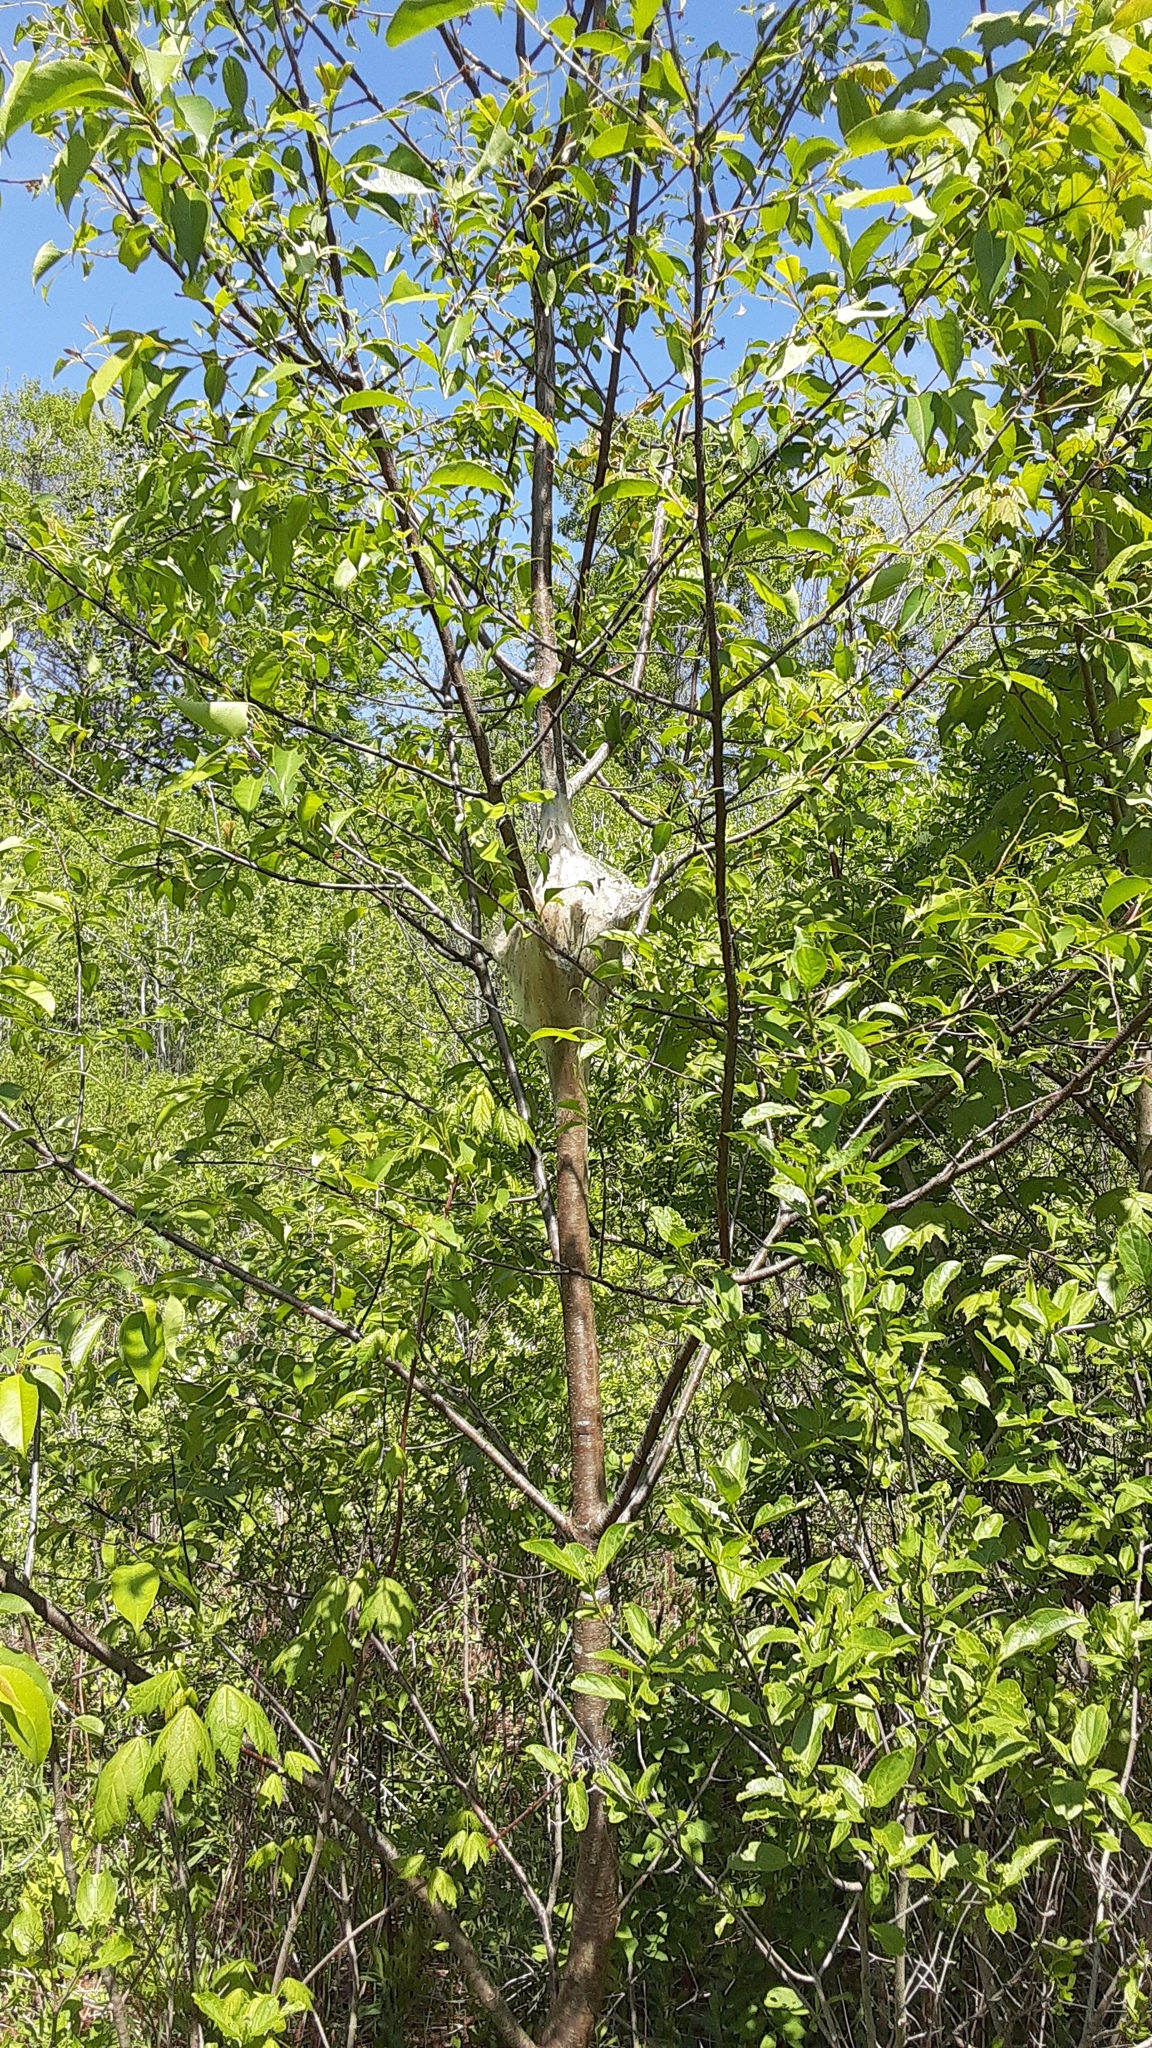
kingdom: Animalia
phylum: Arthropoda
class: Insecta
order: Lepidoptera
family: Lasiocampidae
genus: Malacosoma
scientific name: Malacosoma americana
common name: Eastern tent caterpillar moth
